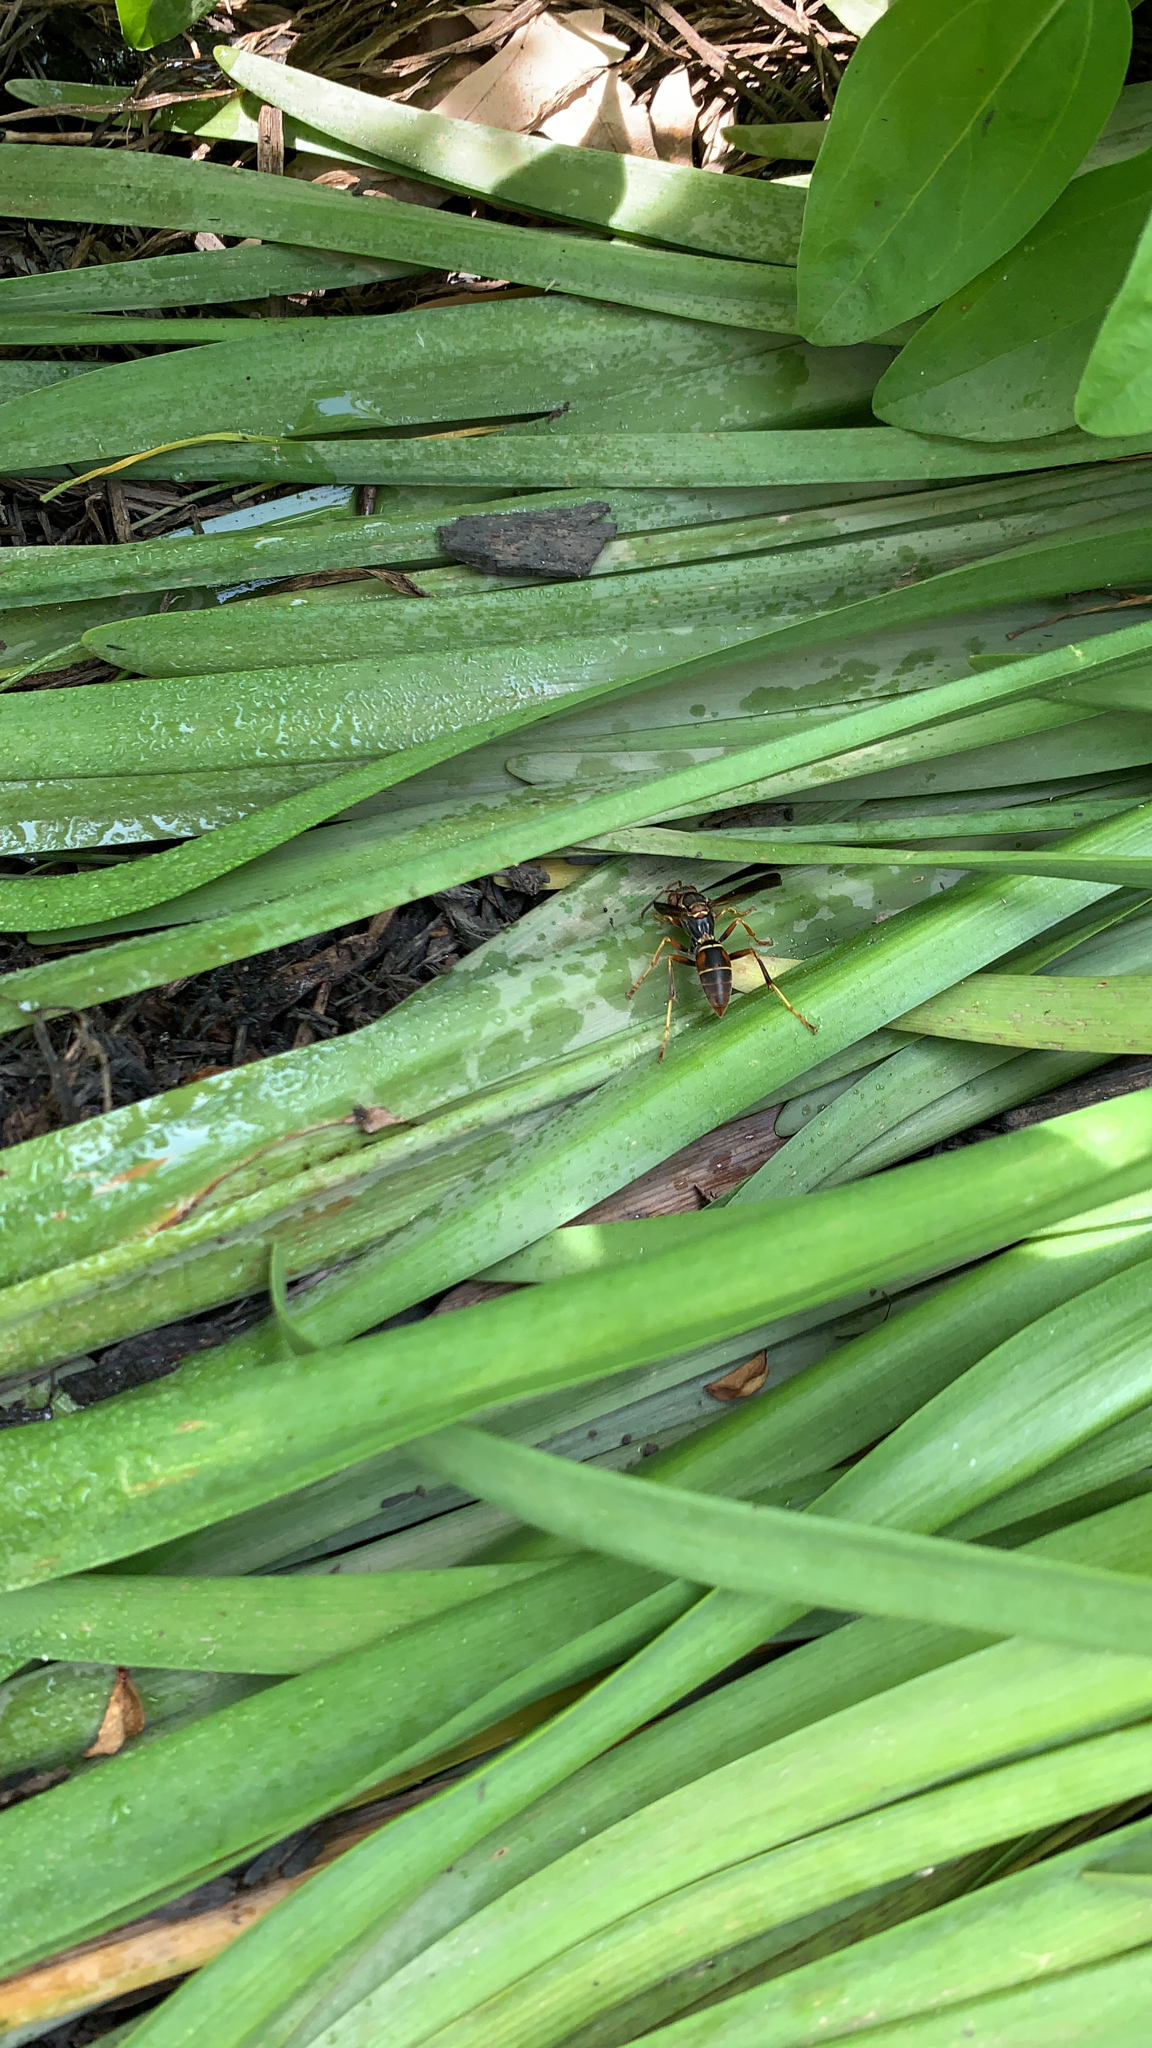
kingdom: Animalia
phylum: Arthropoda
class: Insecta
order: Hymenoptera
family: Eumenidae
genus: Polistes
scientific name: Polistes fuscatus
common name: Dark paper wasp
